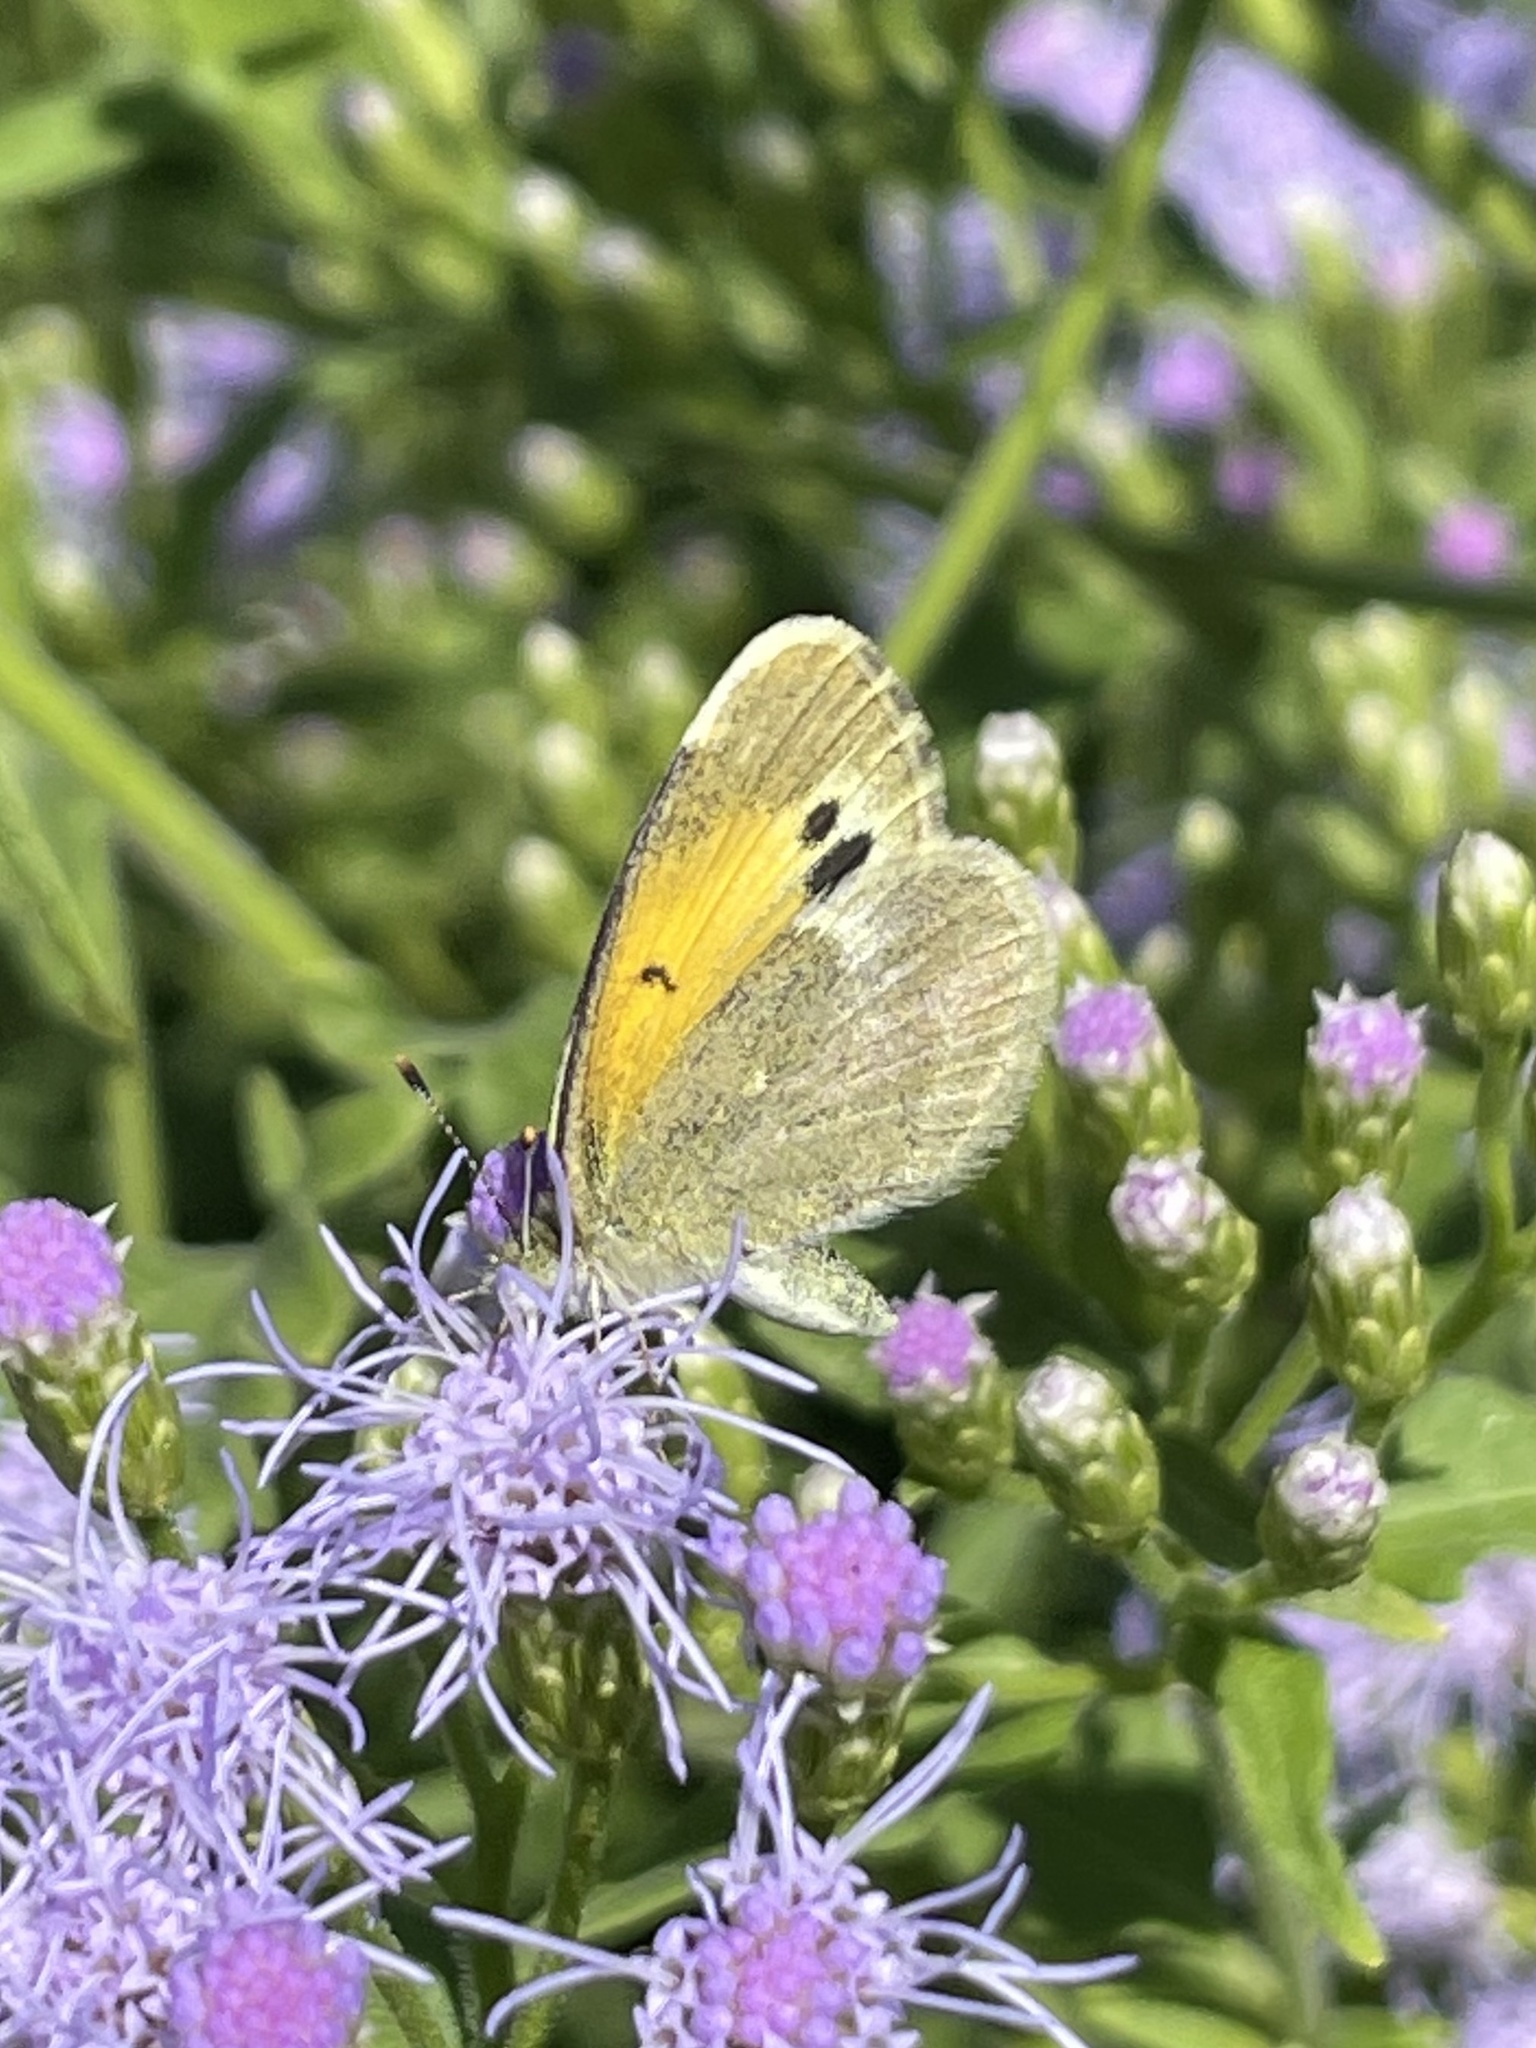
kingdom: Animalia
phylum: Arthropoda
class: Insecta
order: Lepidoptera
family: Pieridae
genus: Nathalis
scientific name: Nathalis iole
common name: Dainty sulphur
